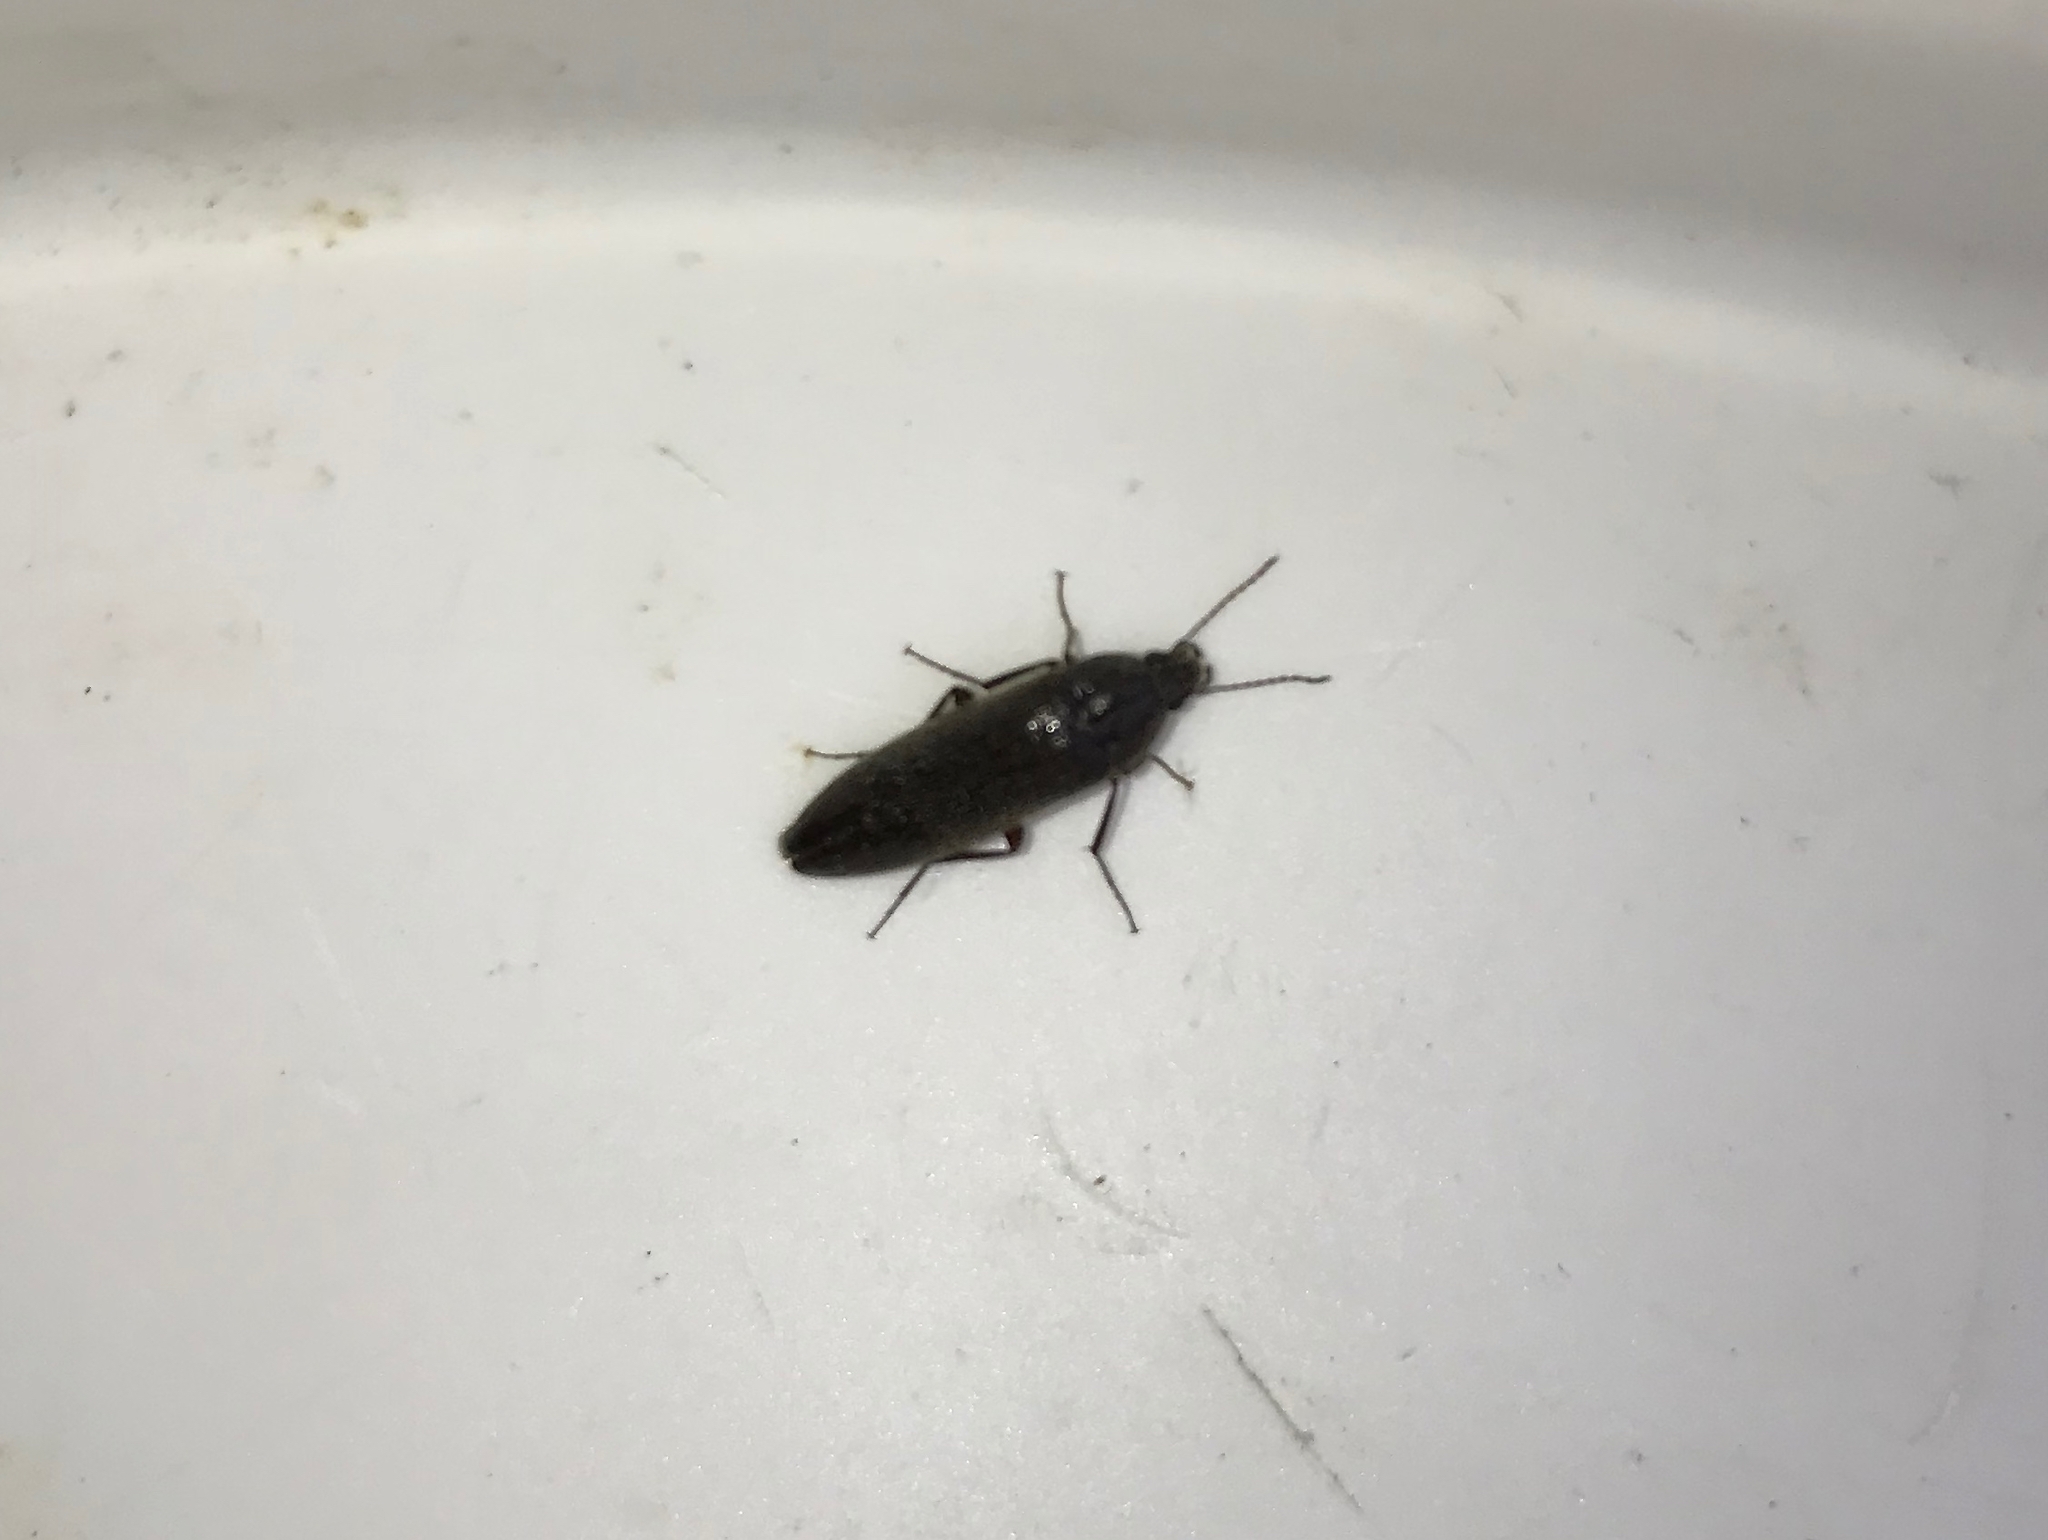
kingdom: Animalia
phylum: Arthropoda
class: Insecta
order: Coleoptera
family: Synchroidae
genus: Synchroa
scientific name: Synchroa punctata
